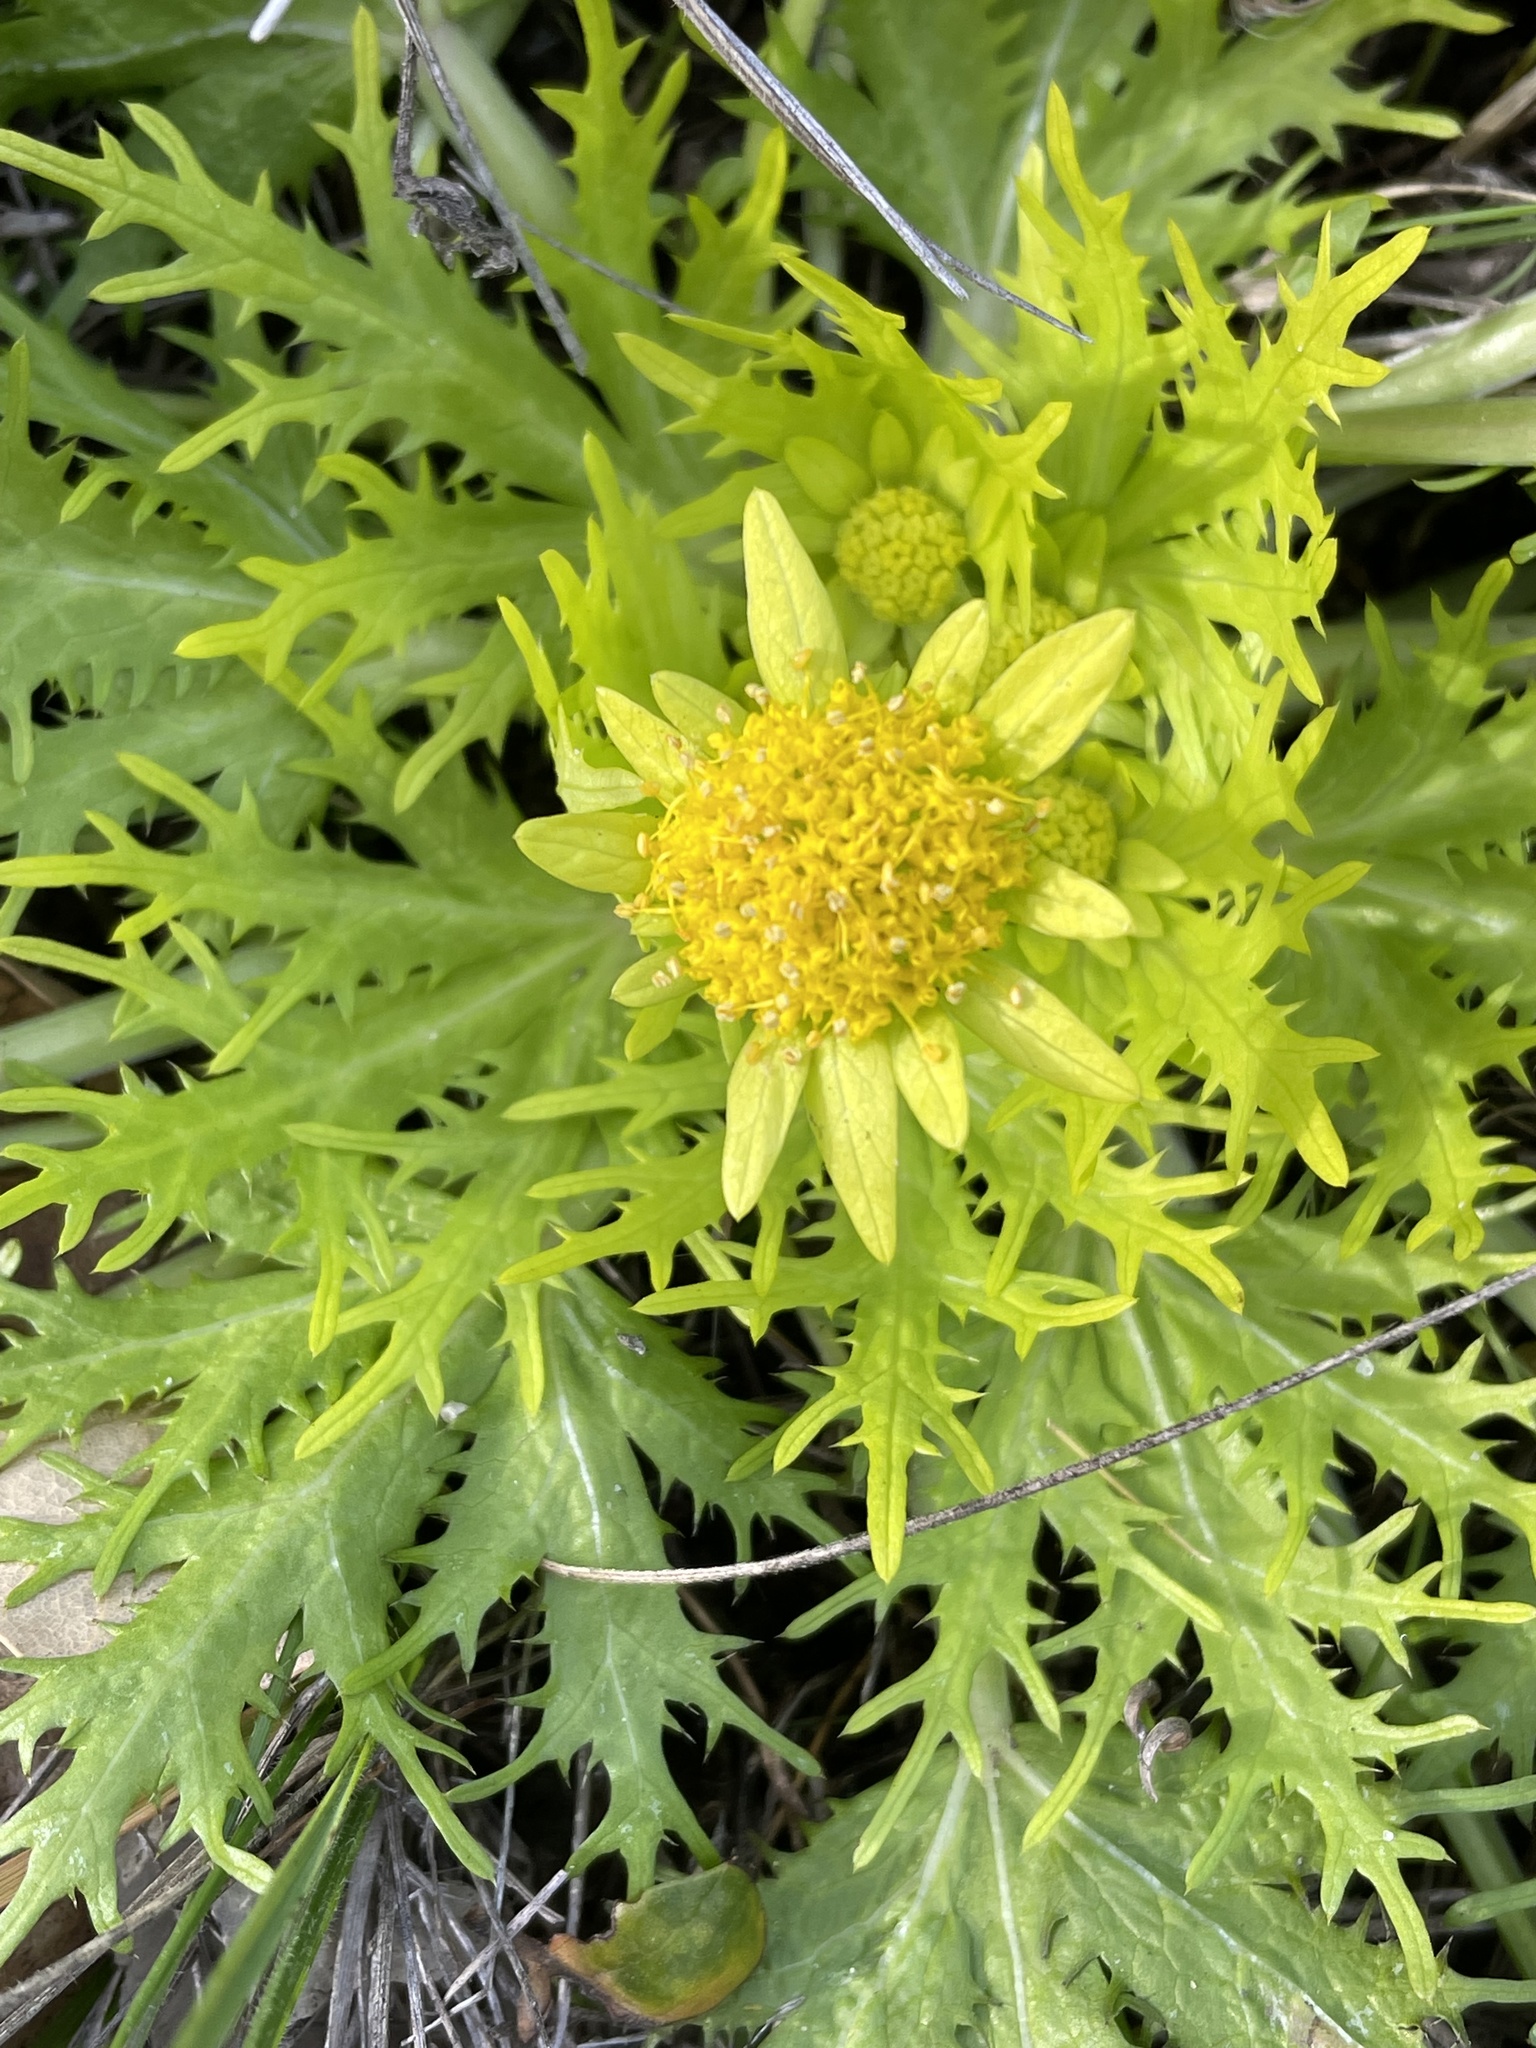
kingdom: Plantae
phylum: Tracheophyta
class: Magnoliopsida
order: Apiales
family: Apiaceae
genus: Sanicula
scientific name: Sanicula arctopoides
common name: Footsteps-of-spring
